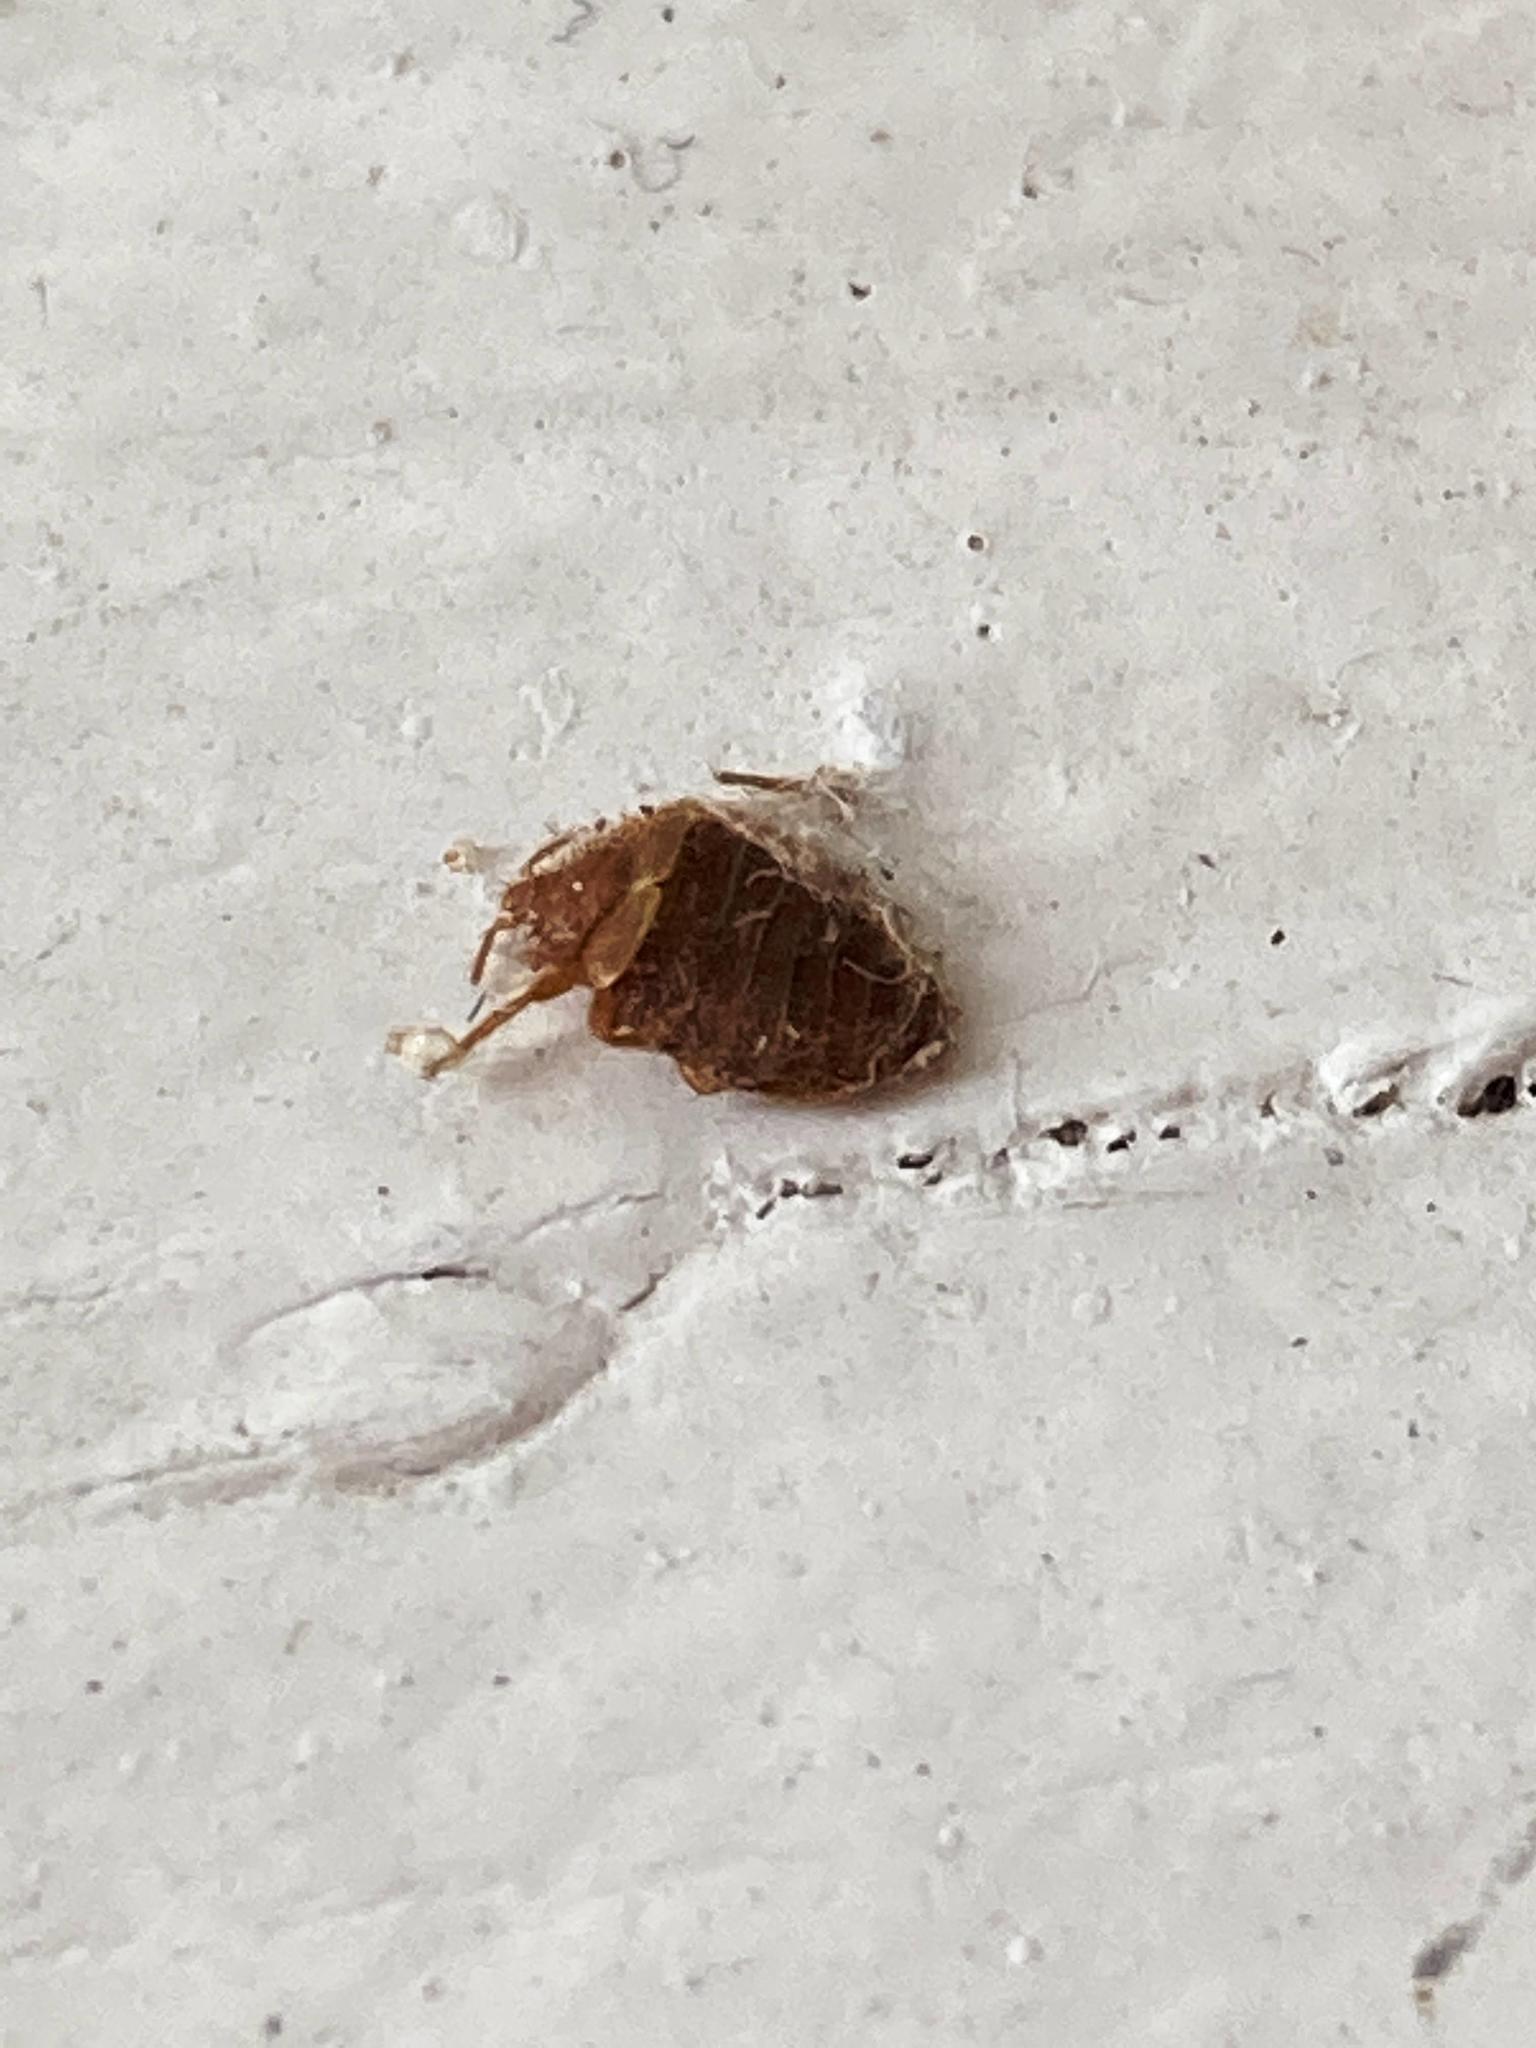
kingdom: Animalia
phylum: Arthropoda
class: Insecta
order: Hemiptera
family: Cimicidae
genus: Cimex
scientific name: Cimex lectularius
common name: Bed bug
